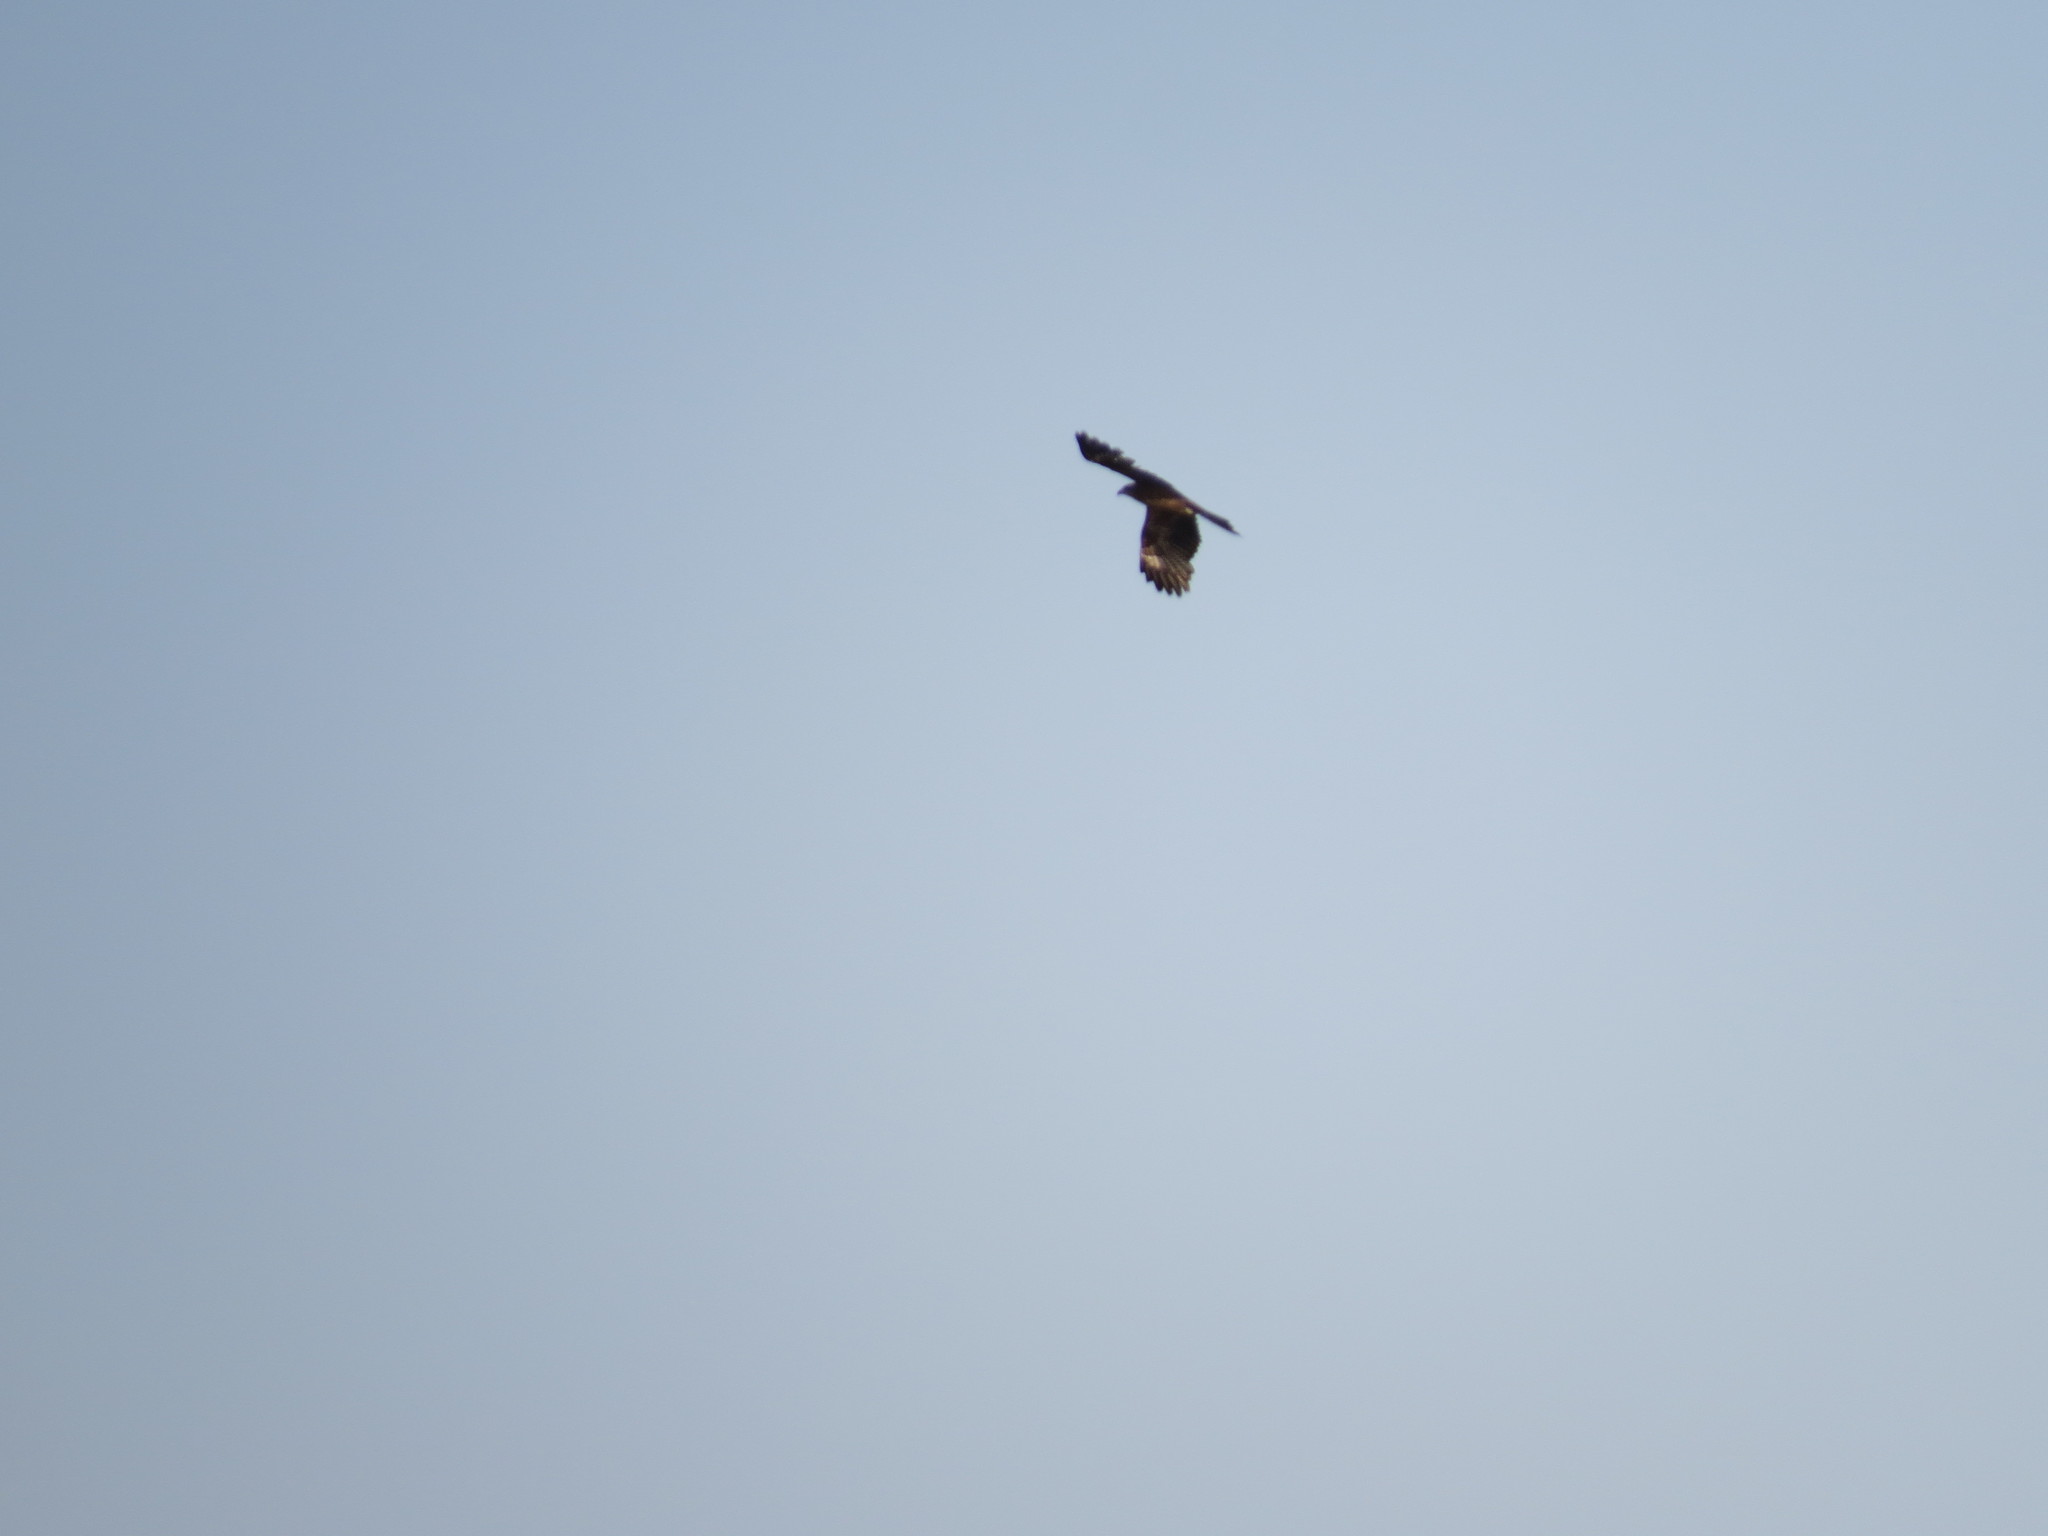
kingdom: Animalia
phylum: Chordata
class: Aves
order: Accipitriformes
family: Accipitridae
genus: Milvus
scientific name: Milvus migrans
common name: Black kite
